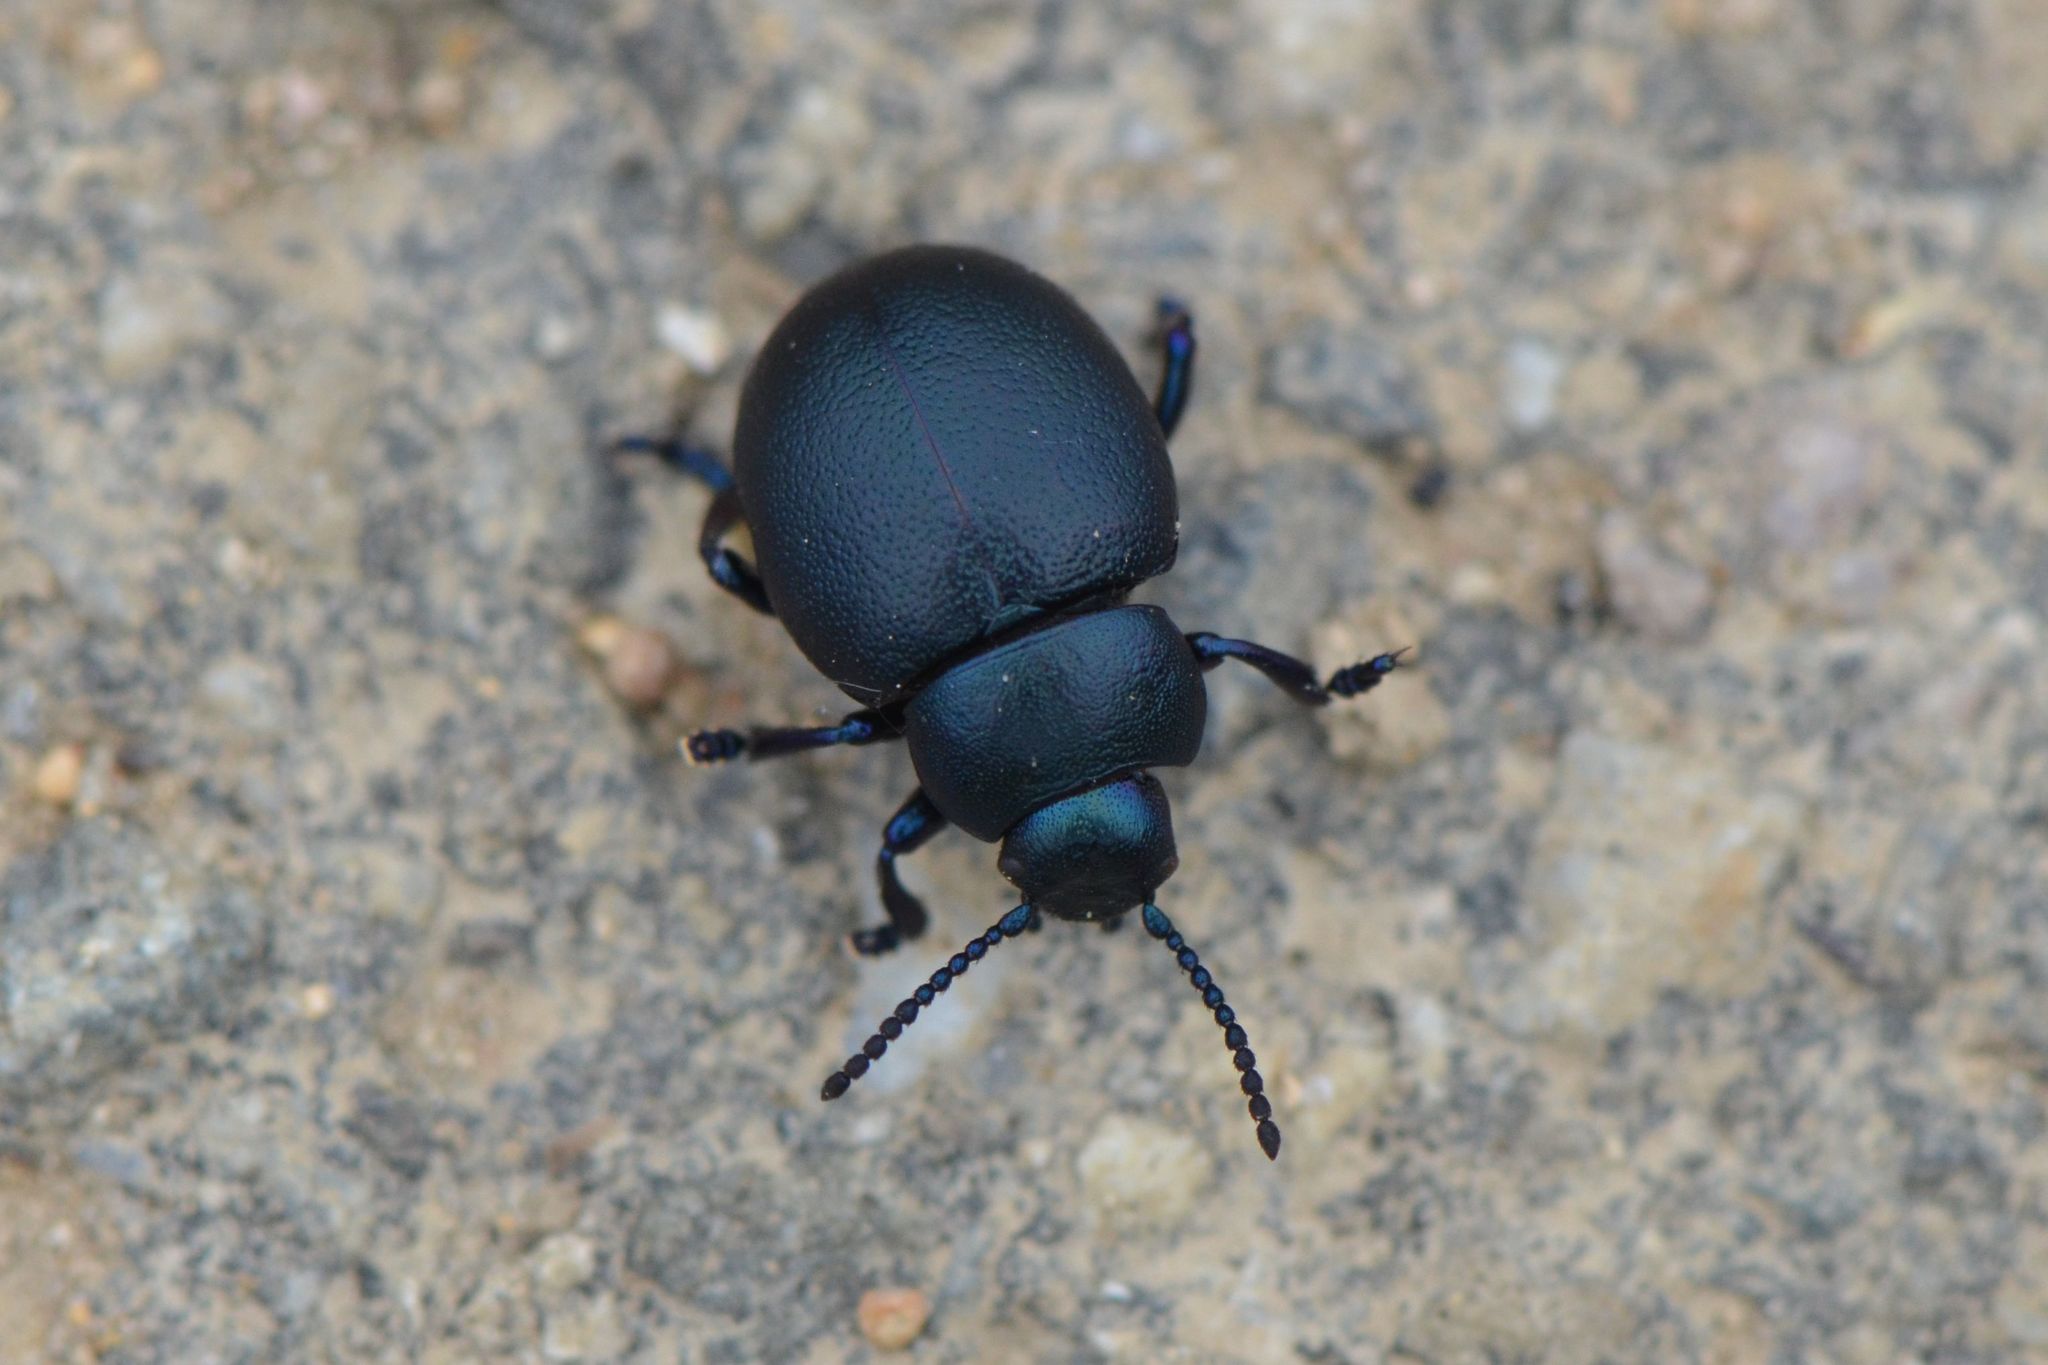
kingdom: Animalia
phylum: Arthropoda
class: Insecta
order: Coleoptera
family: Chrysomelidae
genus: Timarcha
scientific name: Timarcha goettingensis
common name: Small bloody-nosed beetle
